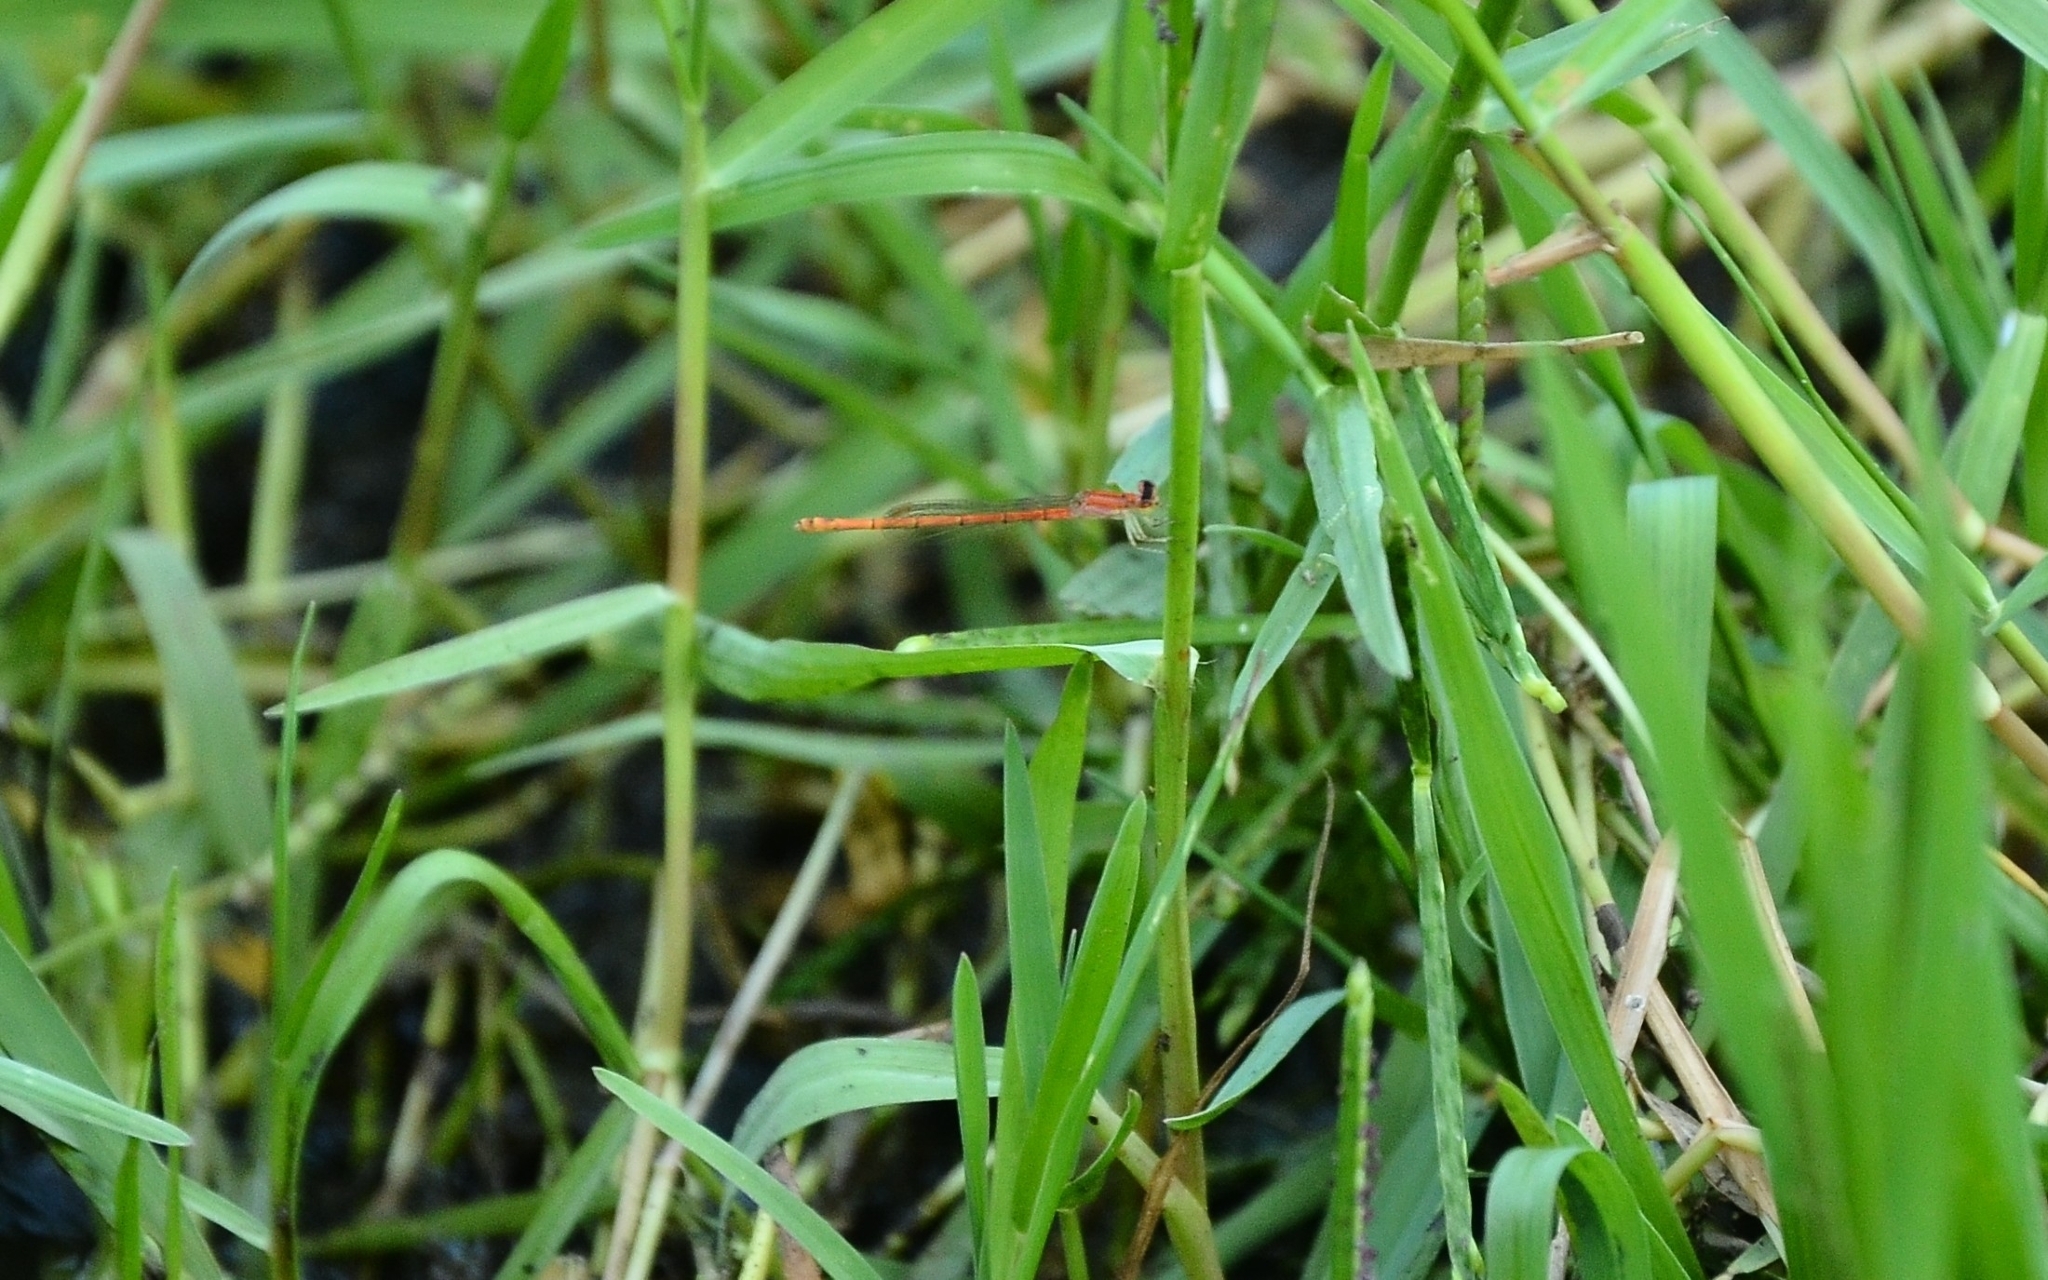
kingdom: Animalia
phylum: Arthropoda
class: Insecta
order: Odonata
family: Coenagrionidae
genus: Agriocnemis
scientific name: Agriocnemis pygmaea
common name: Pygmy wisp
